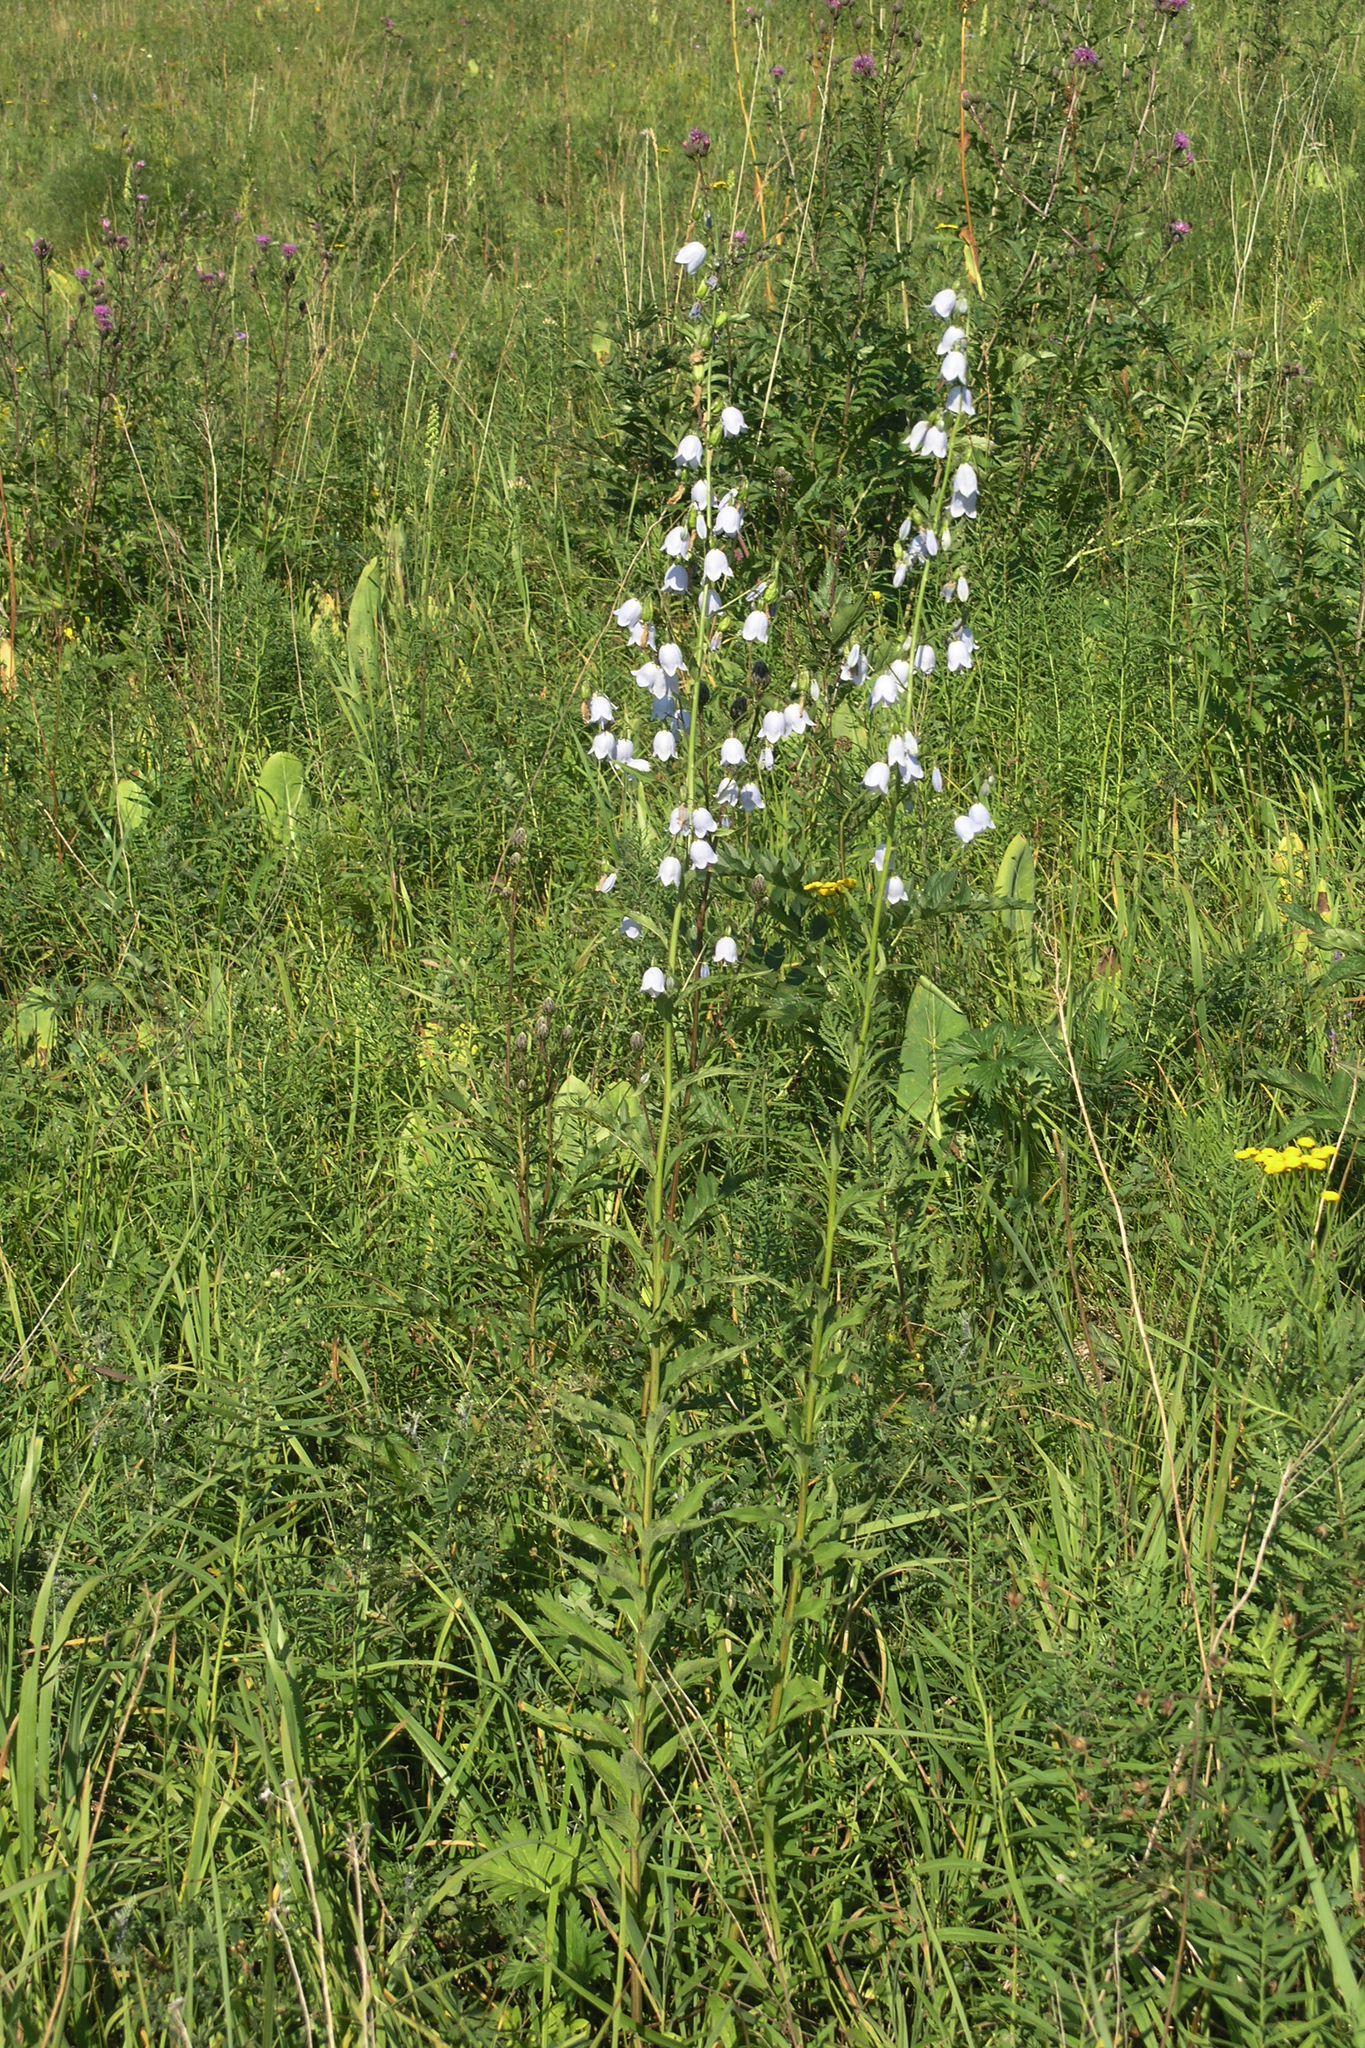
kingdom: Plantae
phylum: Tracheophyta
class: Magnoliopsida
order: Asterales
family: Campanulaceae
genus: Adenophora
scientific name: Adenophora liliifolia
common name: Lilyleaf ladybells
